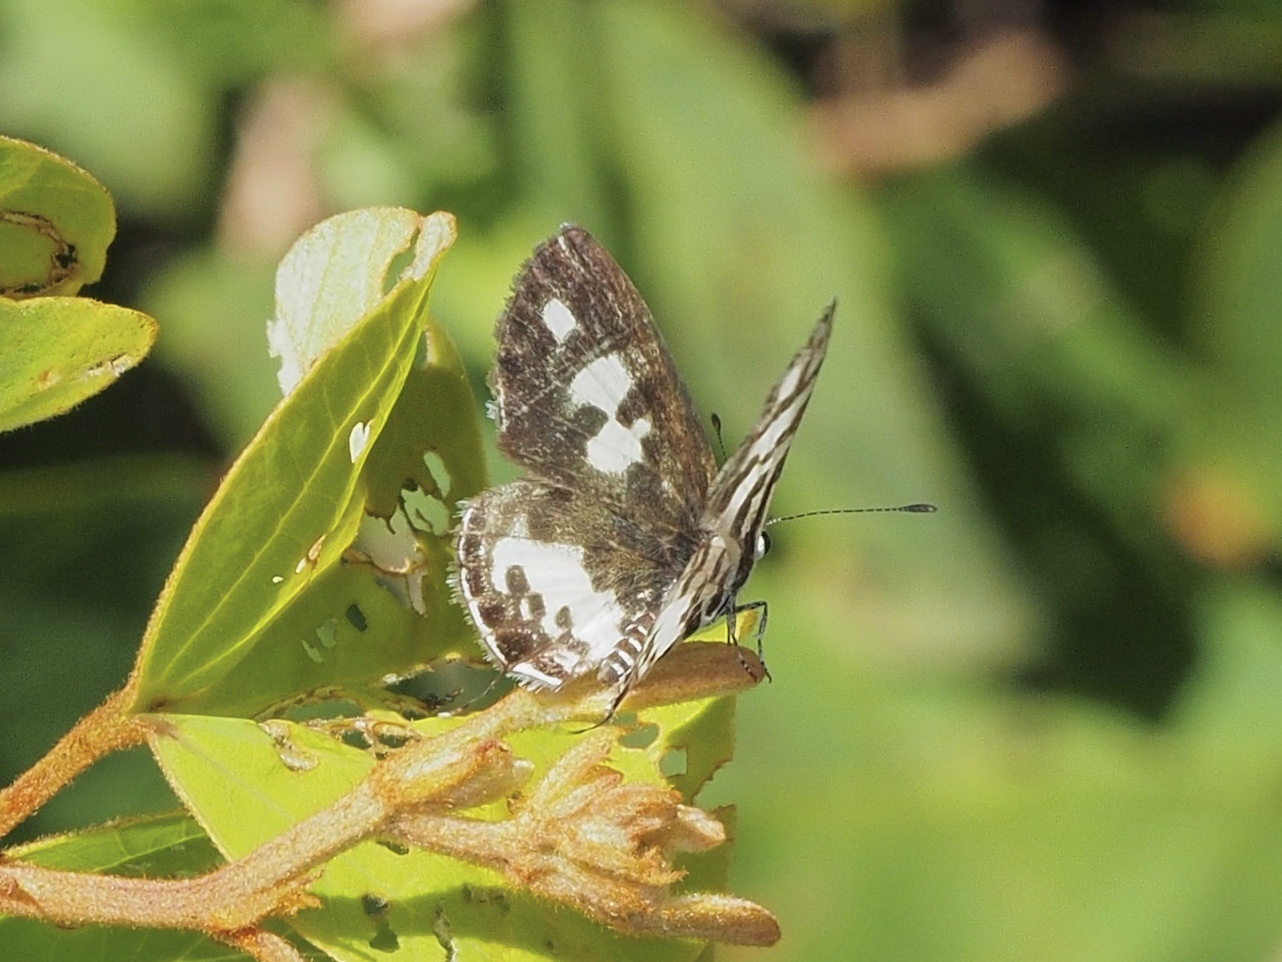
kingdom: Animalia
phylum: Arthropoda
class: Insecta
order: Lepidoptera
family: Lycaenidae
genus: Castalius
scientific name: Castalius melaena
